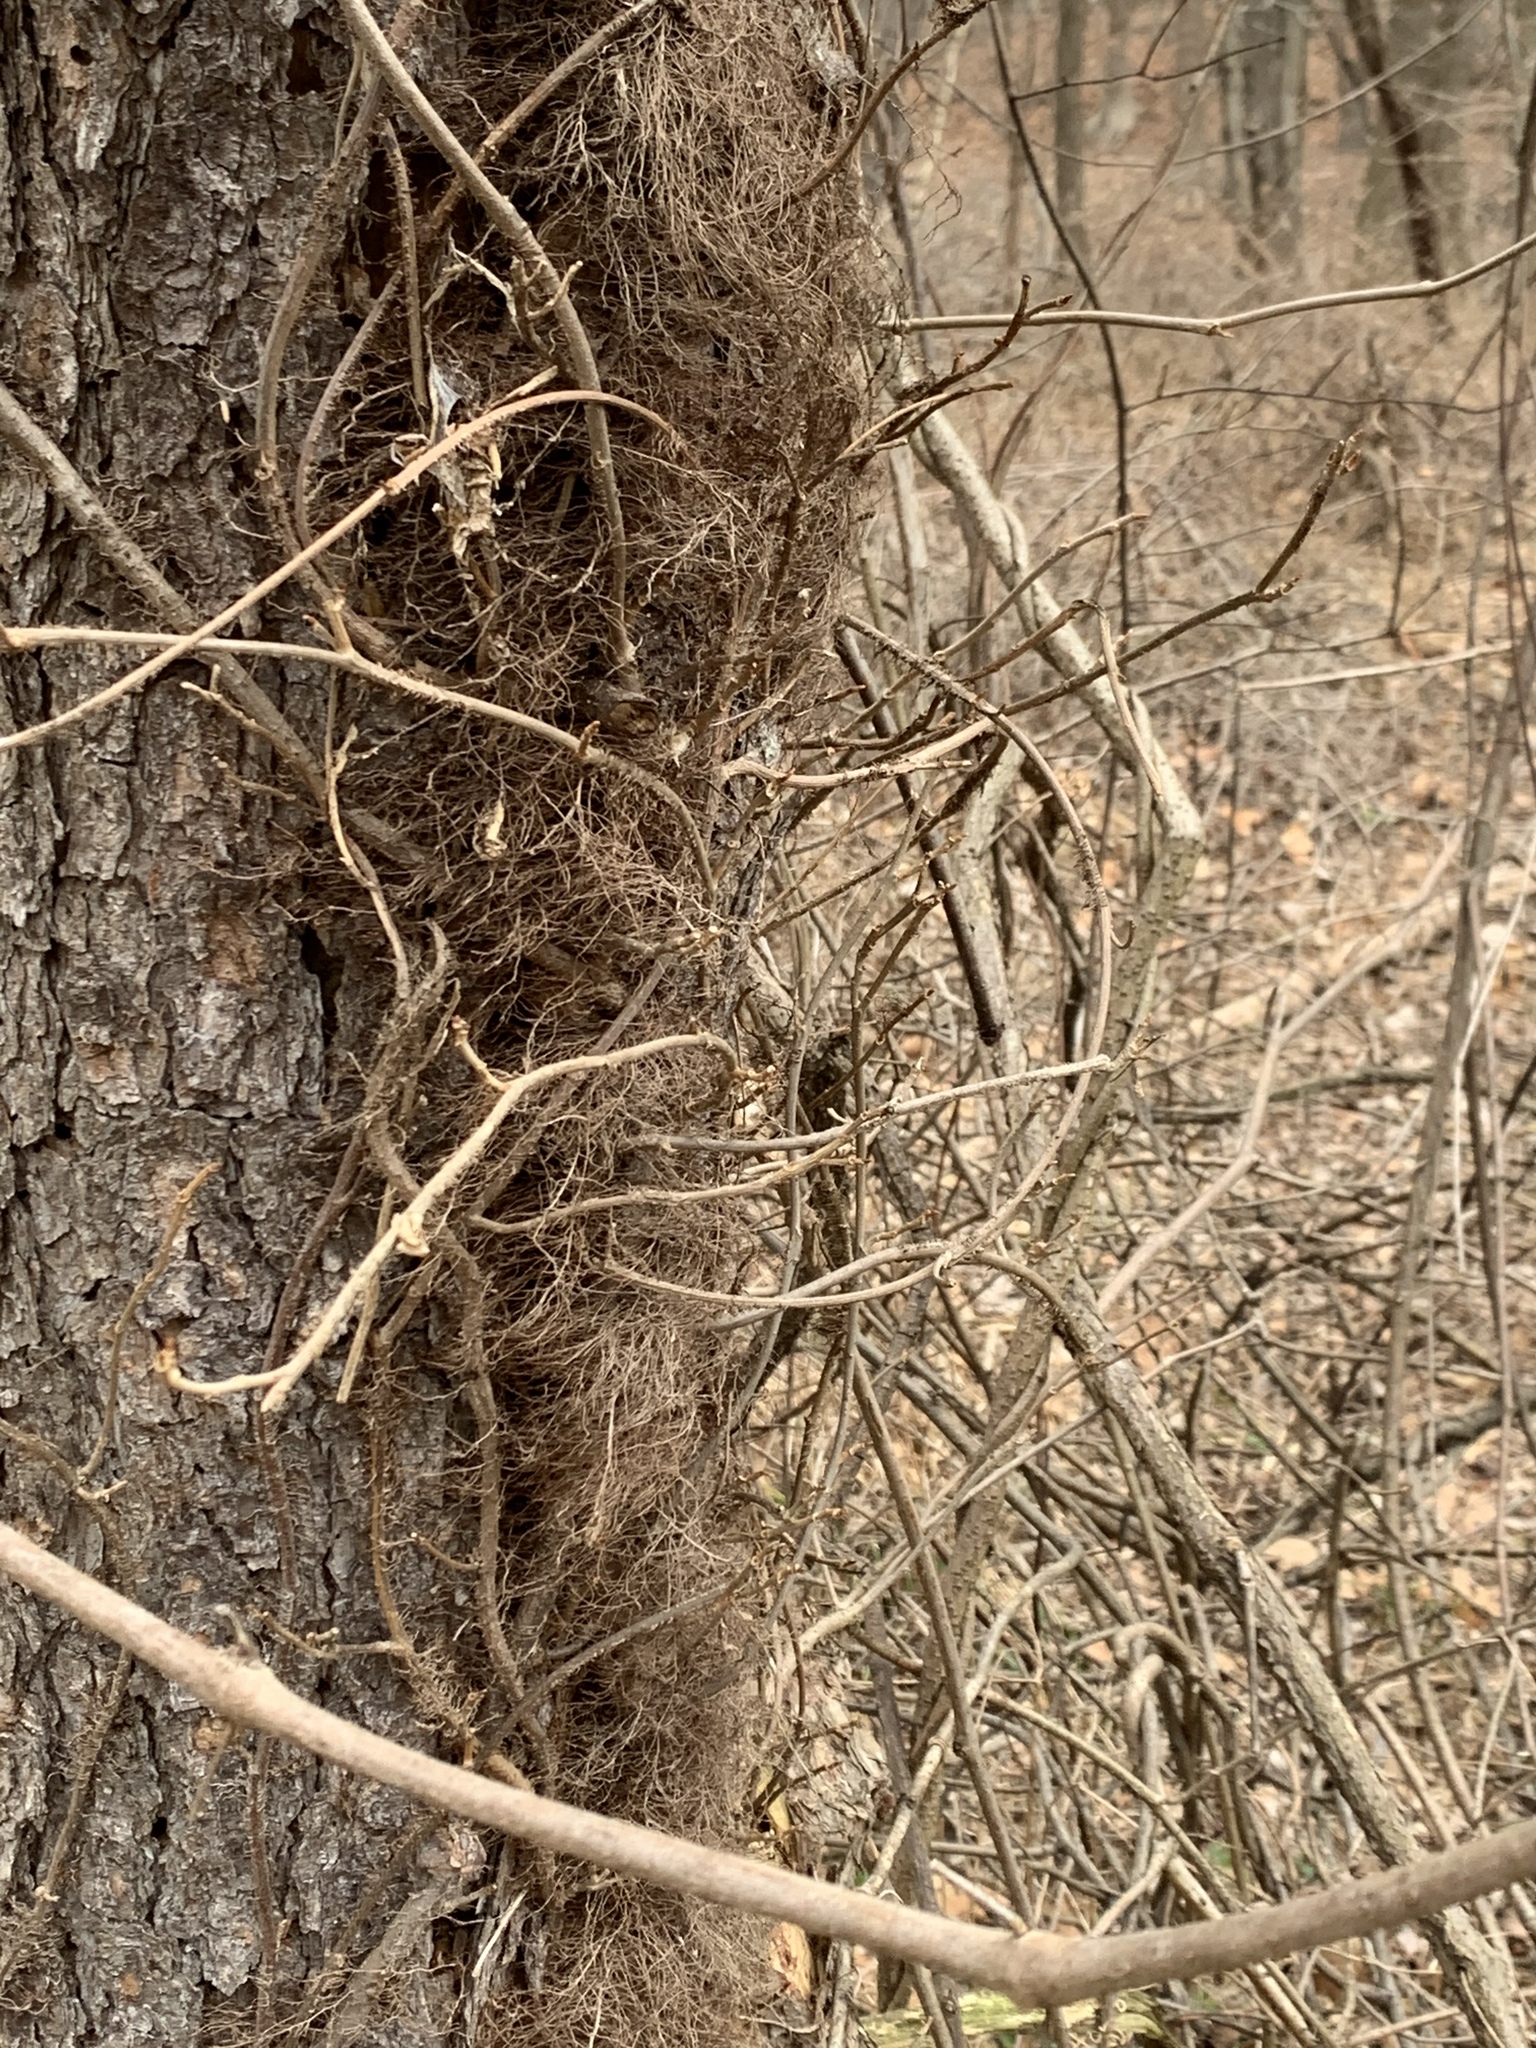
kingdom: Plantae
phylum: Tracheophyta
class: Magnoliopsida
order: Sapindales
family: Anacardiaceae
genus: Toxicodendron
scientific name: Toxicodendron radicans
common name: Poison ivy
